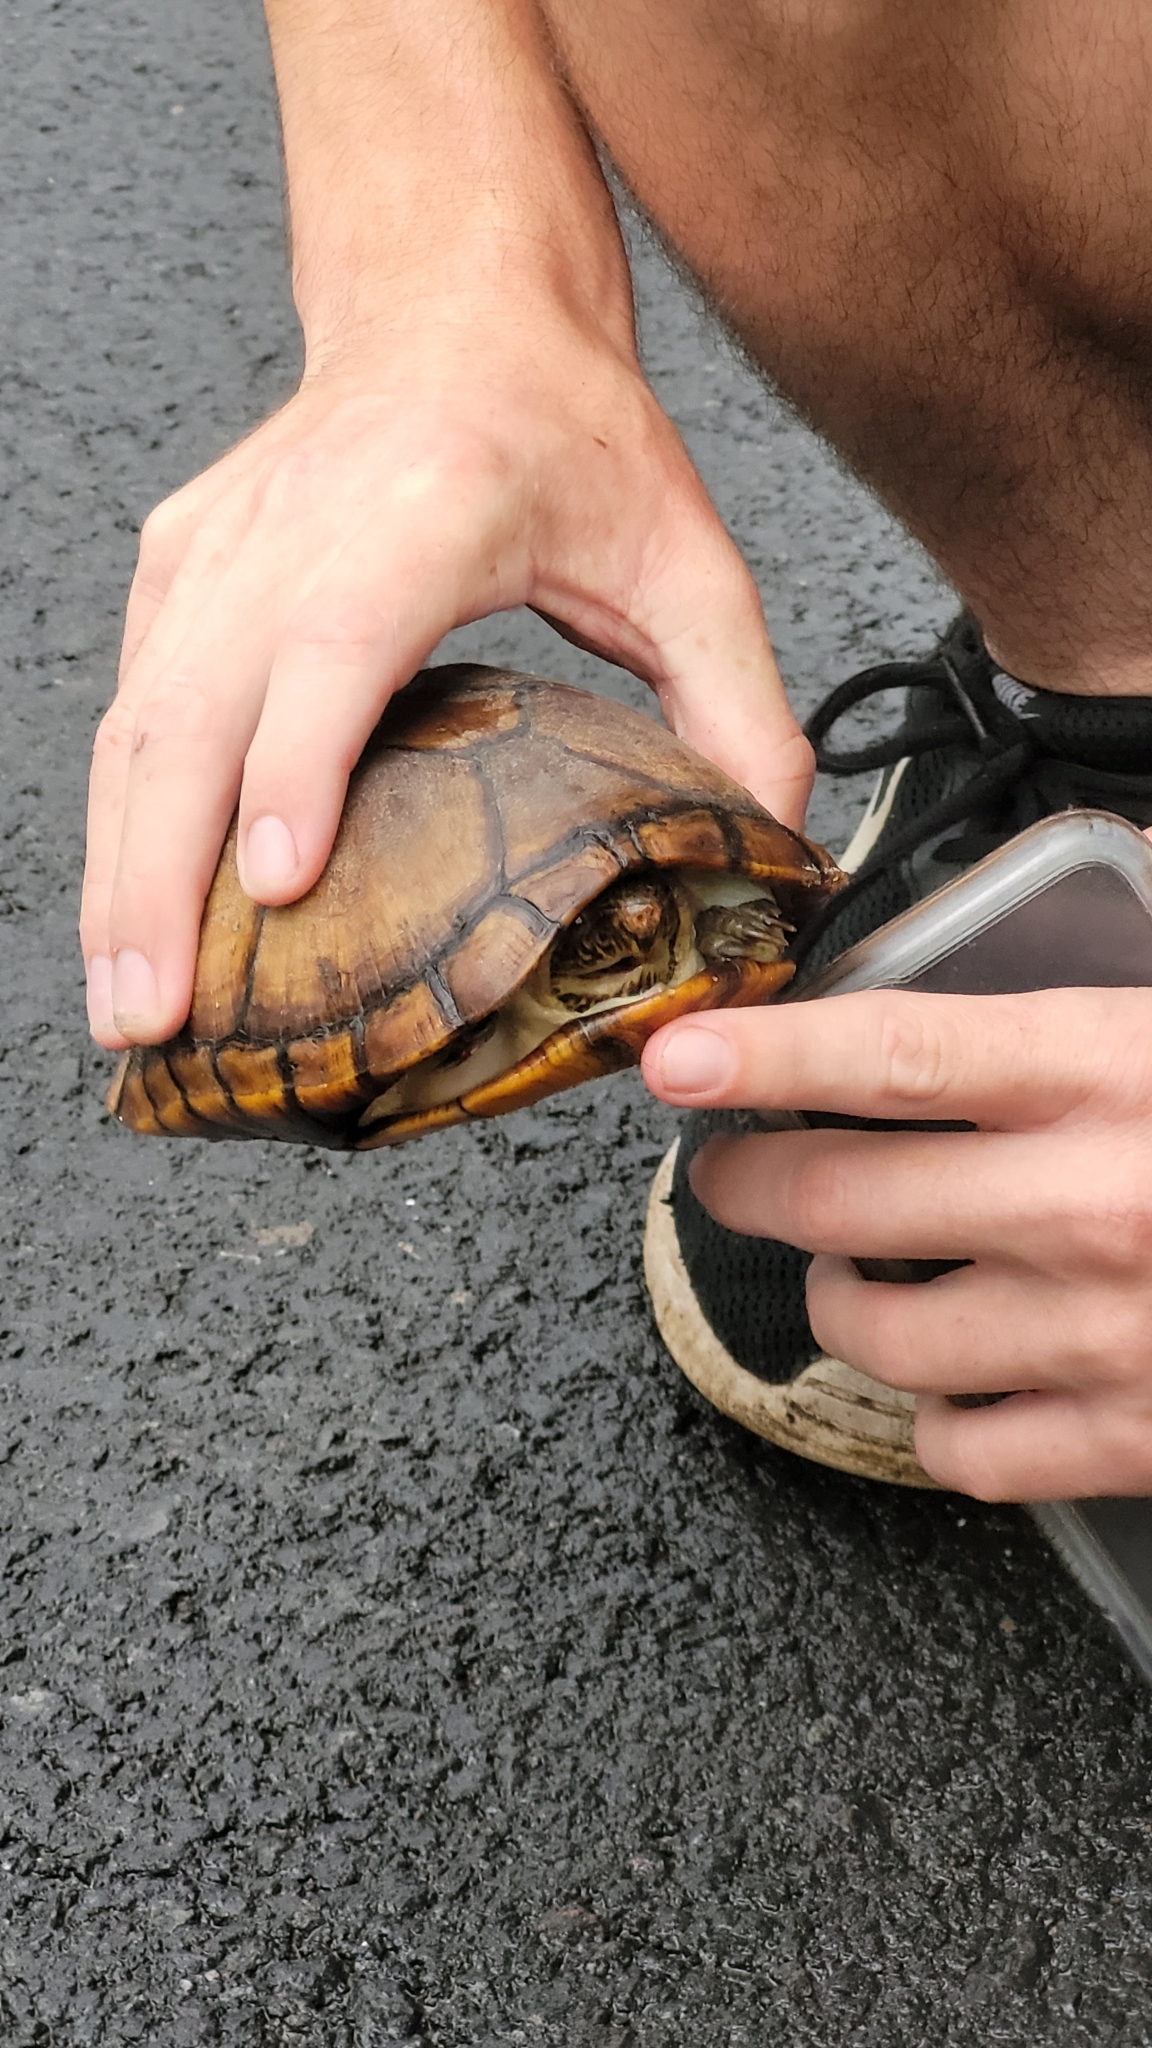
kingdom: Animalia
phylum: Chordata
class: Testudines
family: Kinosternidae
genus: Kinosternon
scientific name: Kinosternon scorpioides
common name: Scorpion mud turtle
